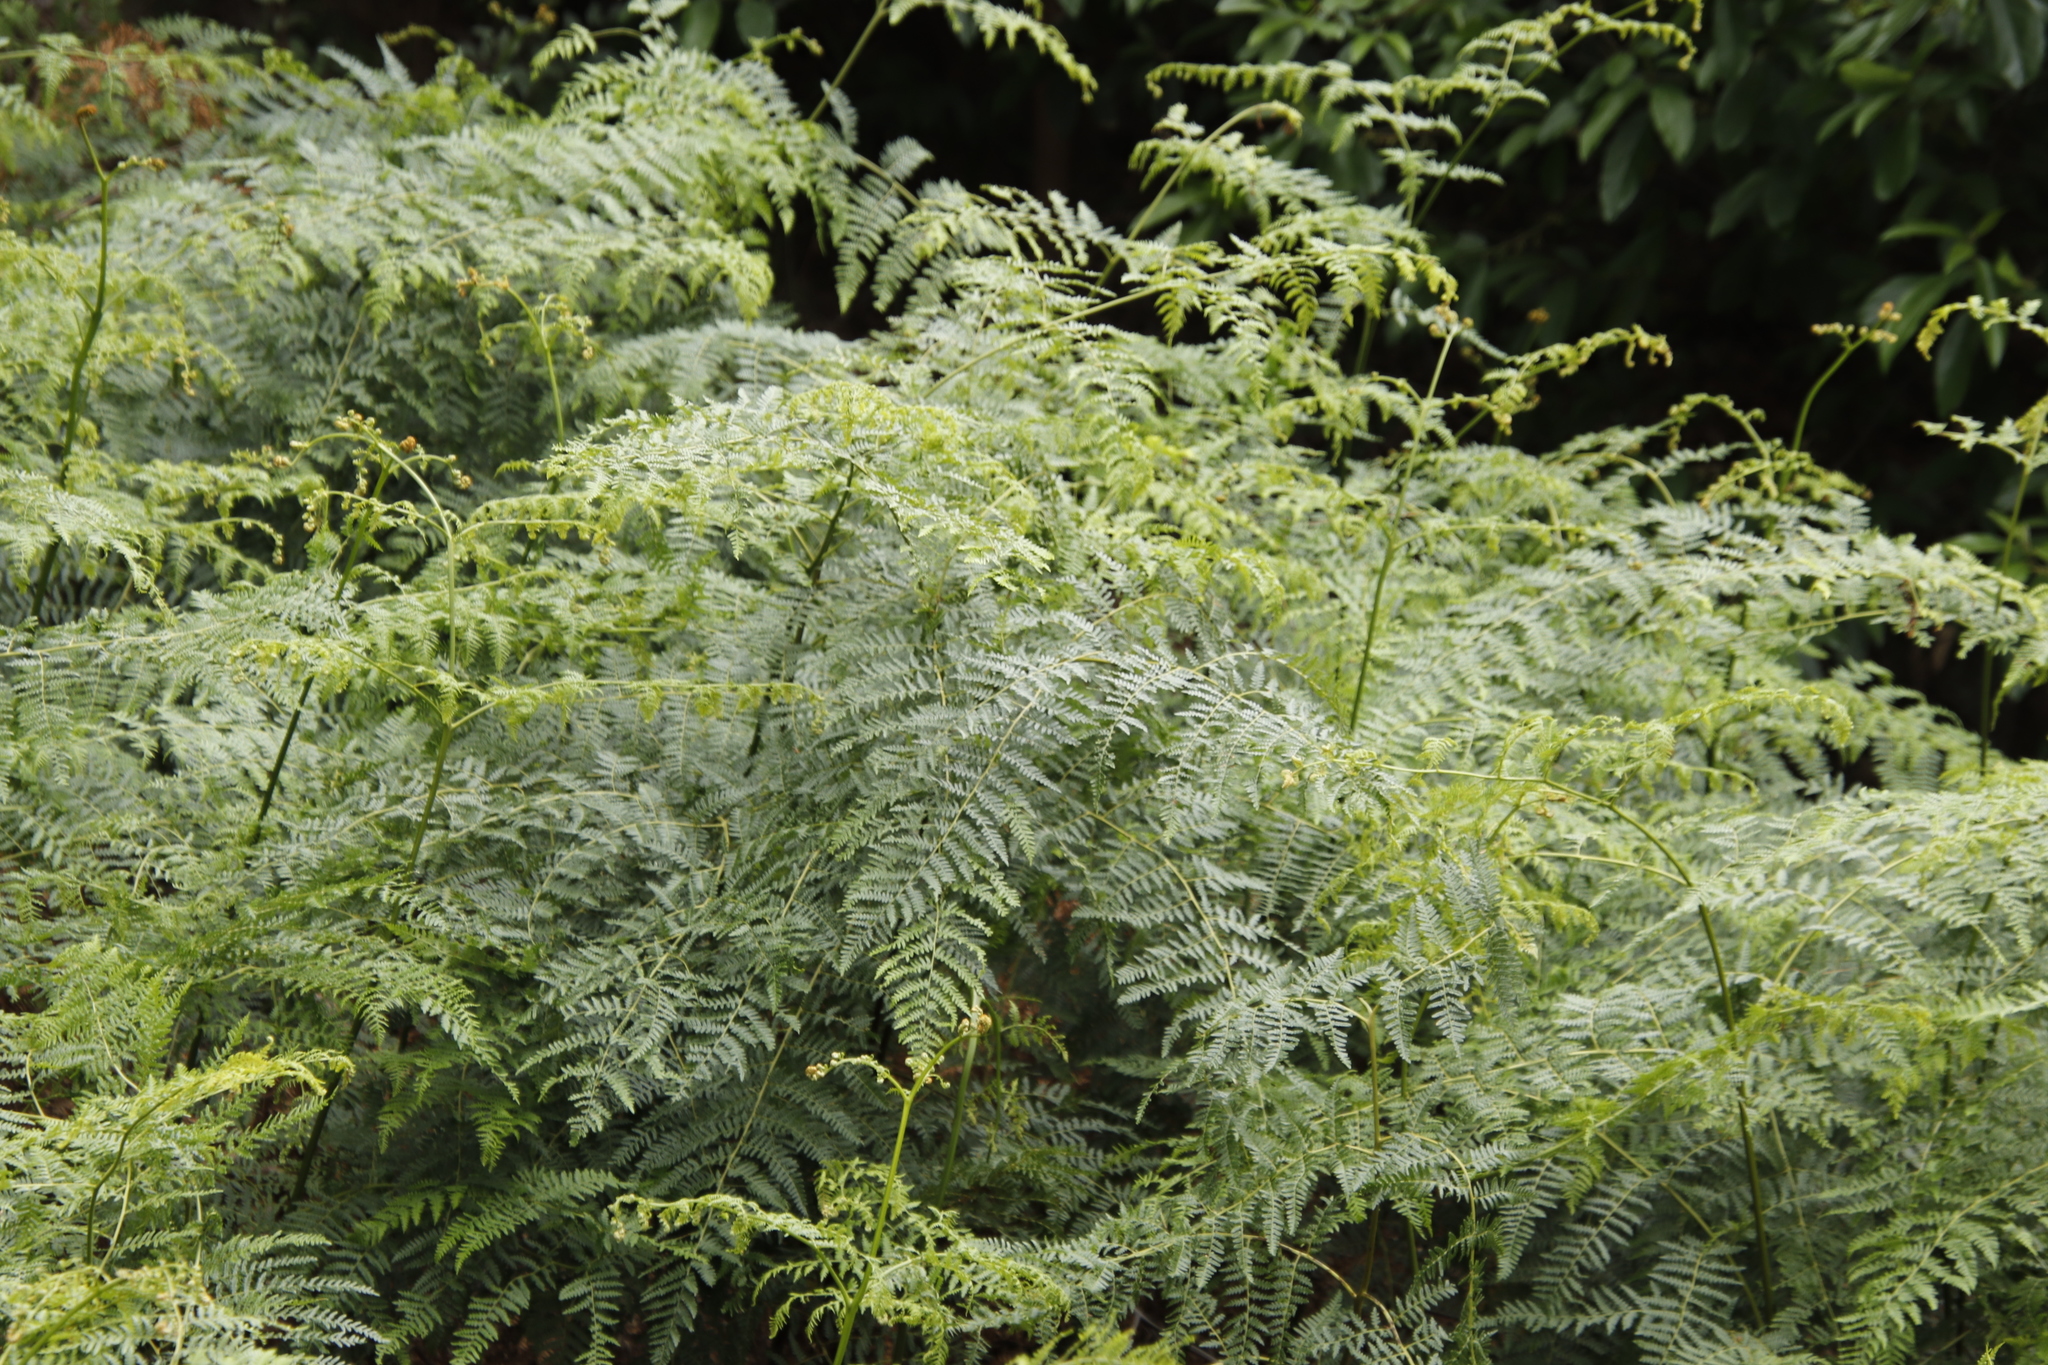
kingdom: Plantae
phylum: Tracheophyta
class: Polypodiopsida
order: Polypodiales
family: Dennstaedtiaceae
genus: Pteridium
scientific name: Pteridium aquilinum
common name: Bracken
